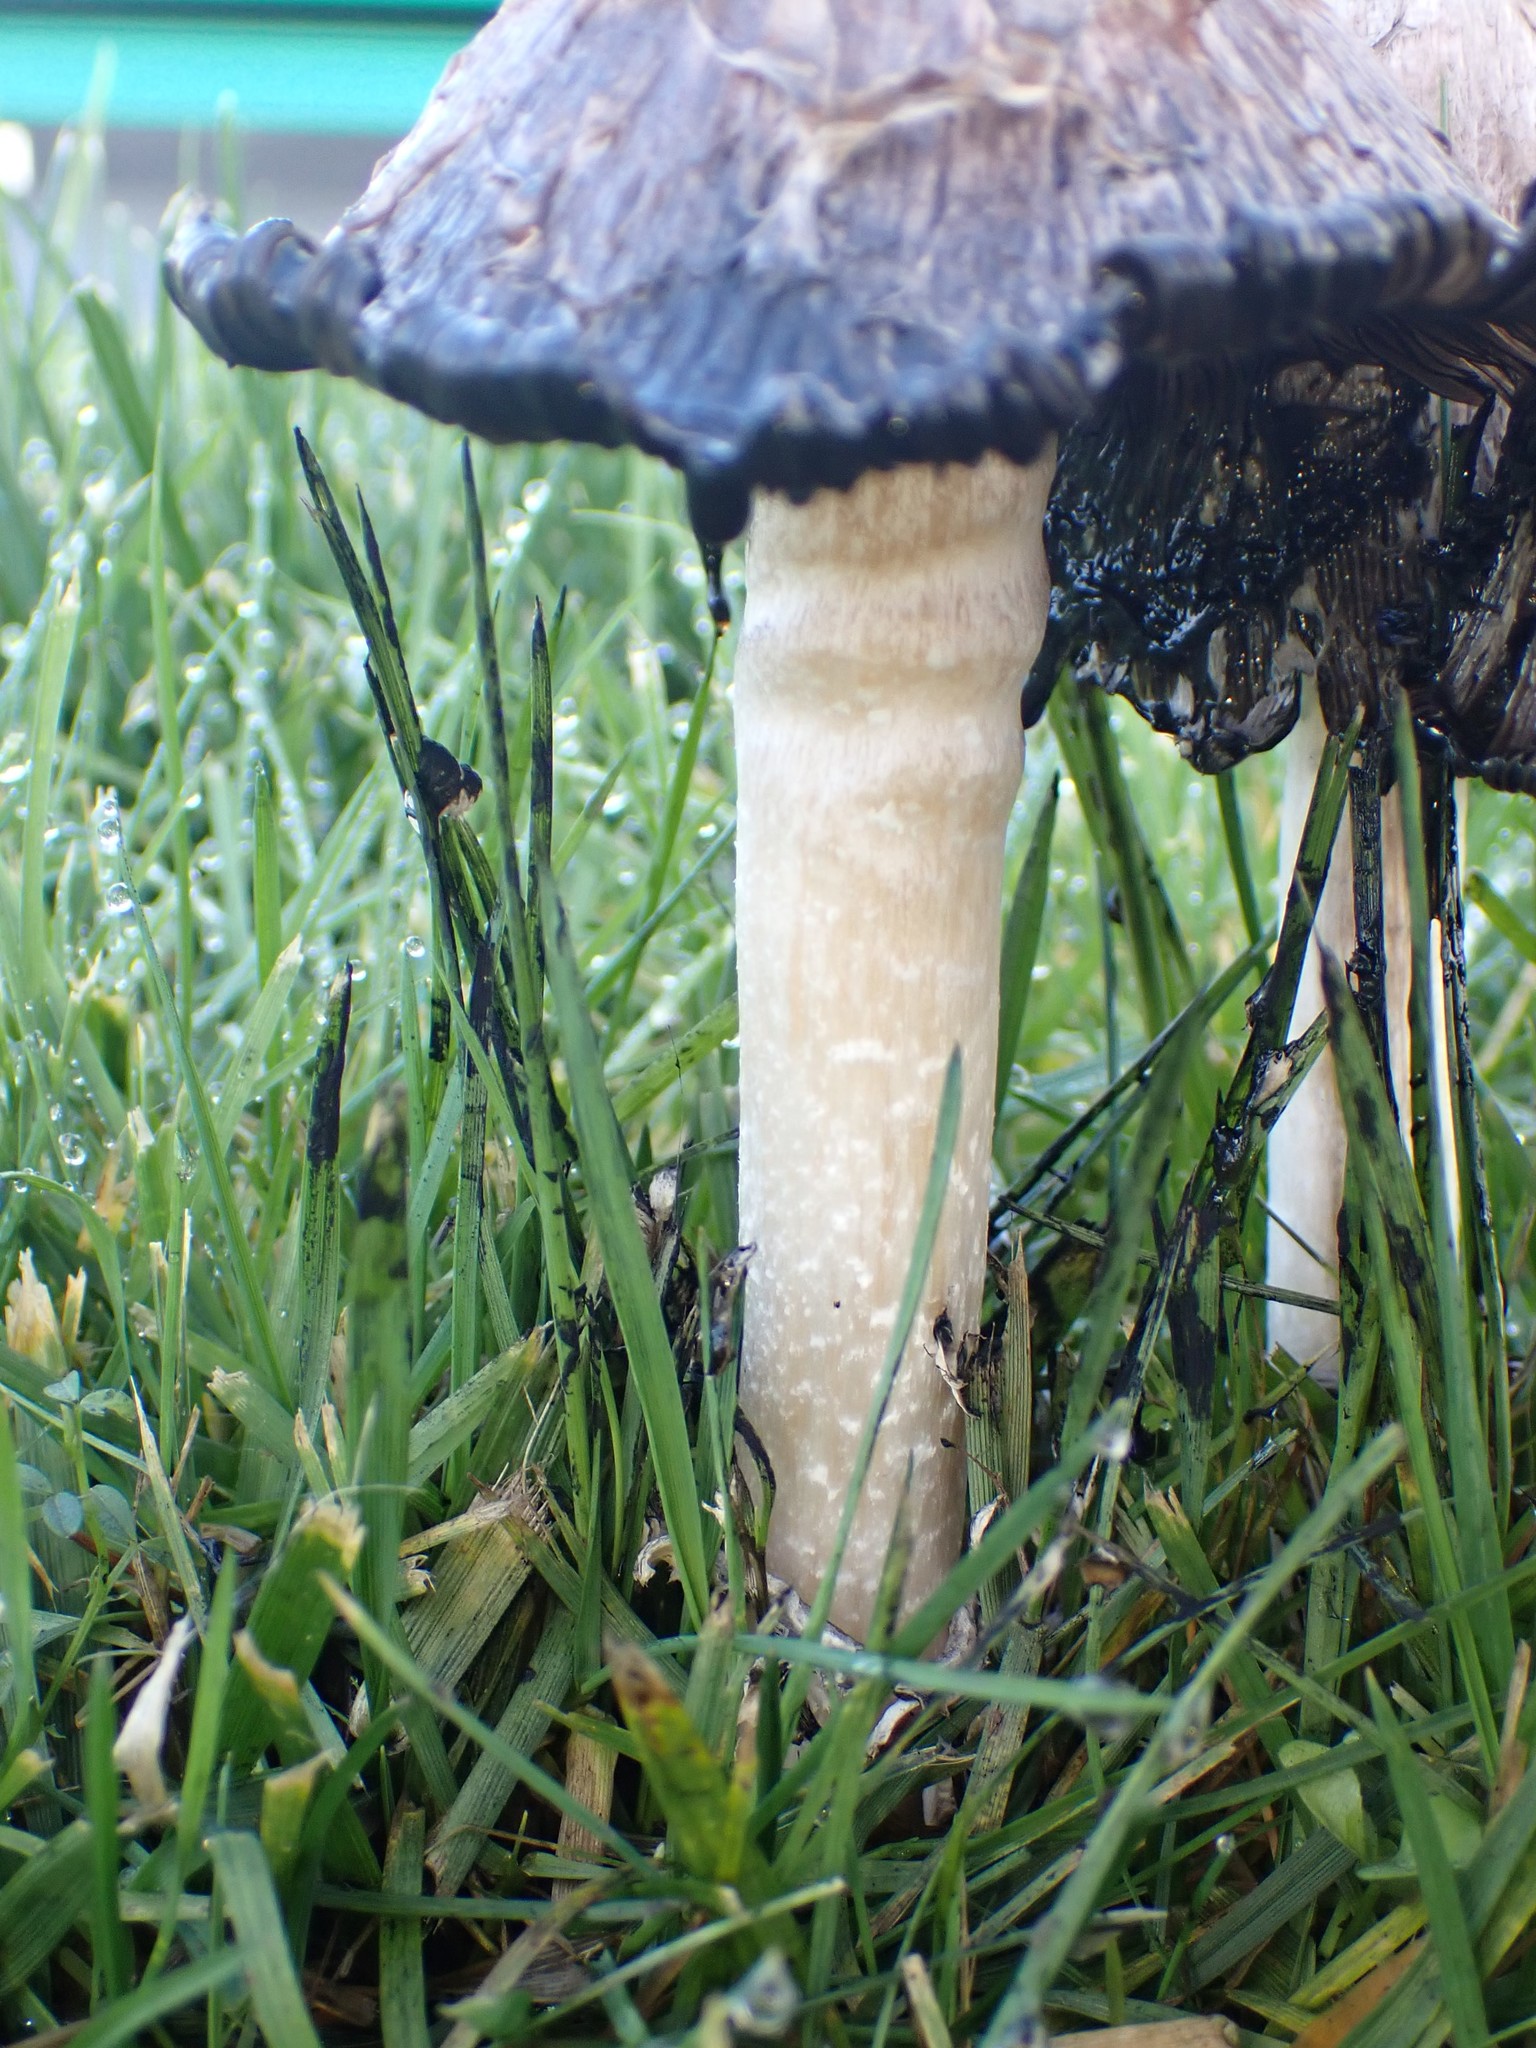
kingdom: Fungi
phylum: Basidiomycota
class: Agaricomycetes
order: Agaricales
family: Agaricaceae
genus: Coprinus
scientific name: Coprinus comatus
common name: Lawyer's wig
